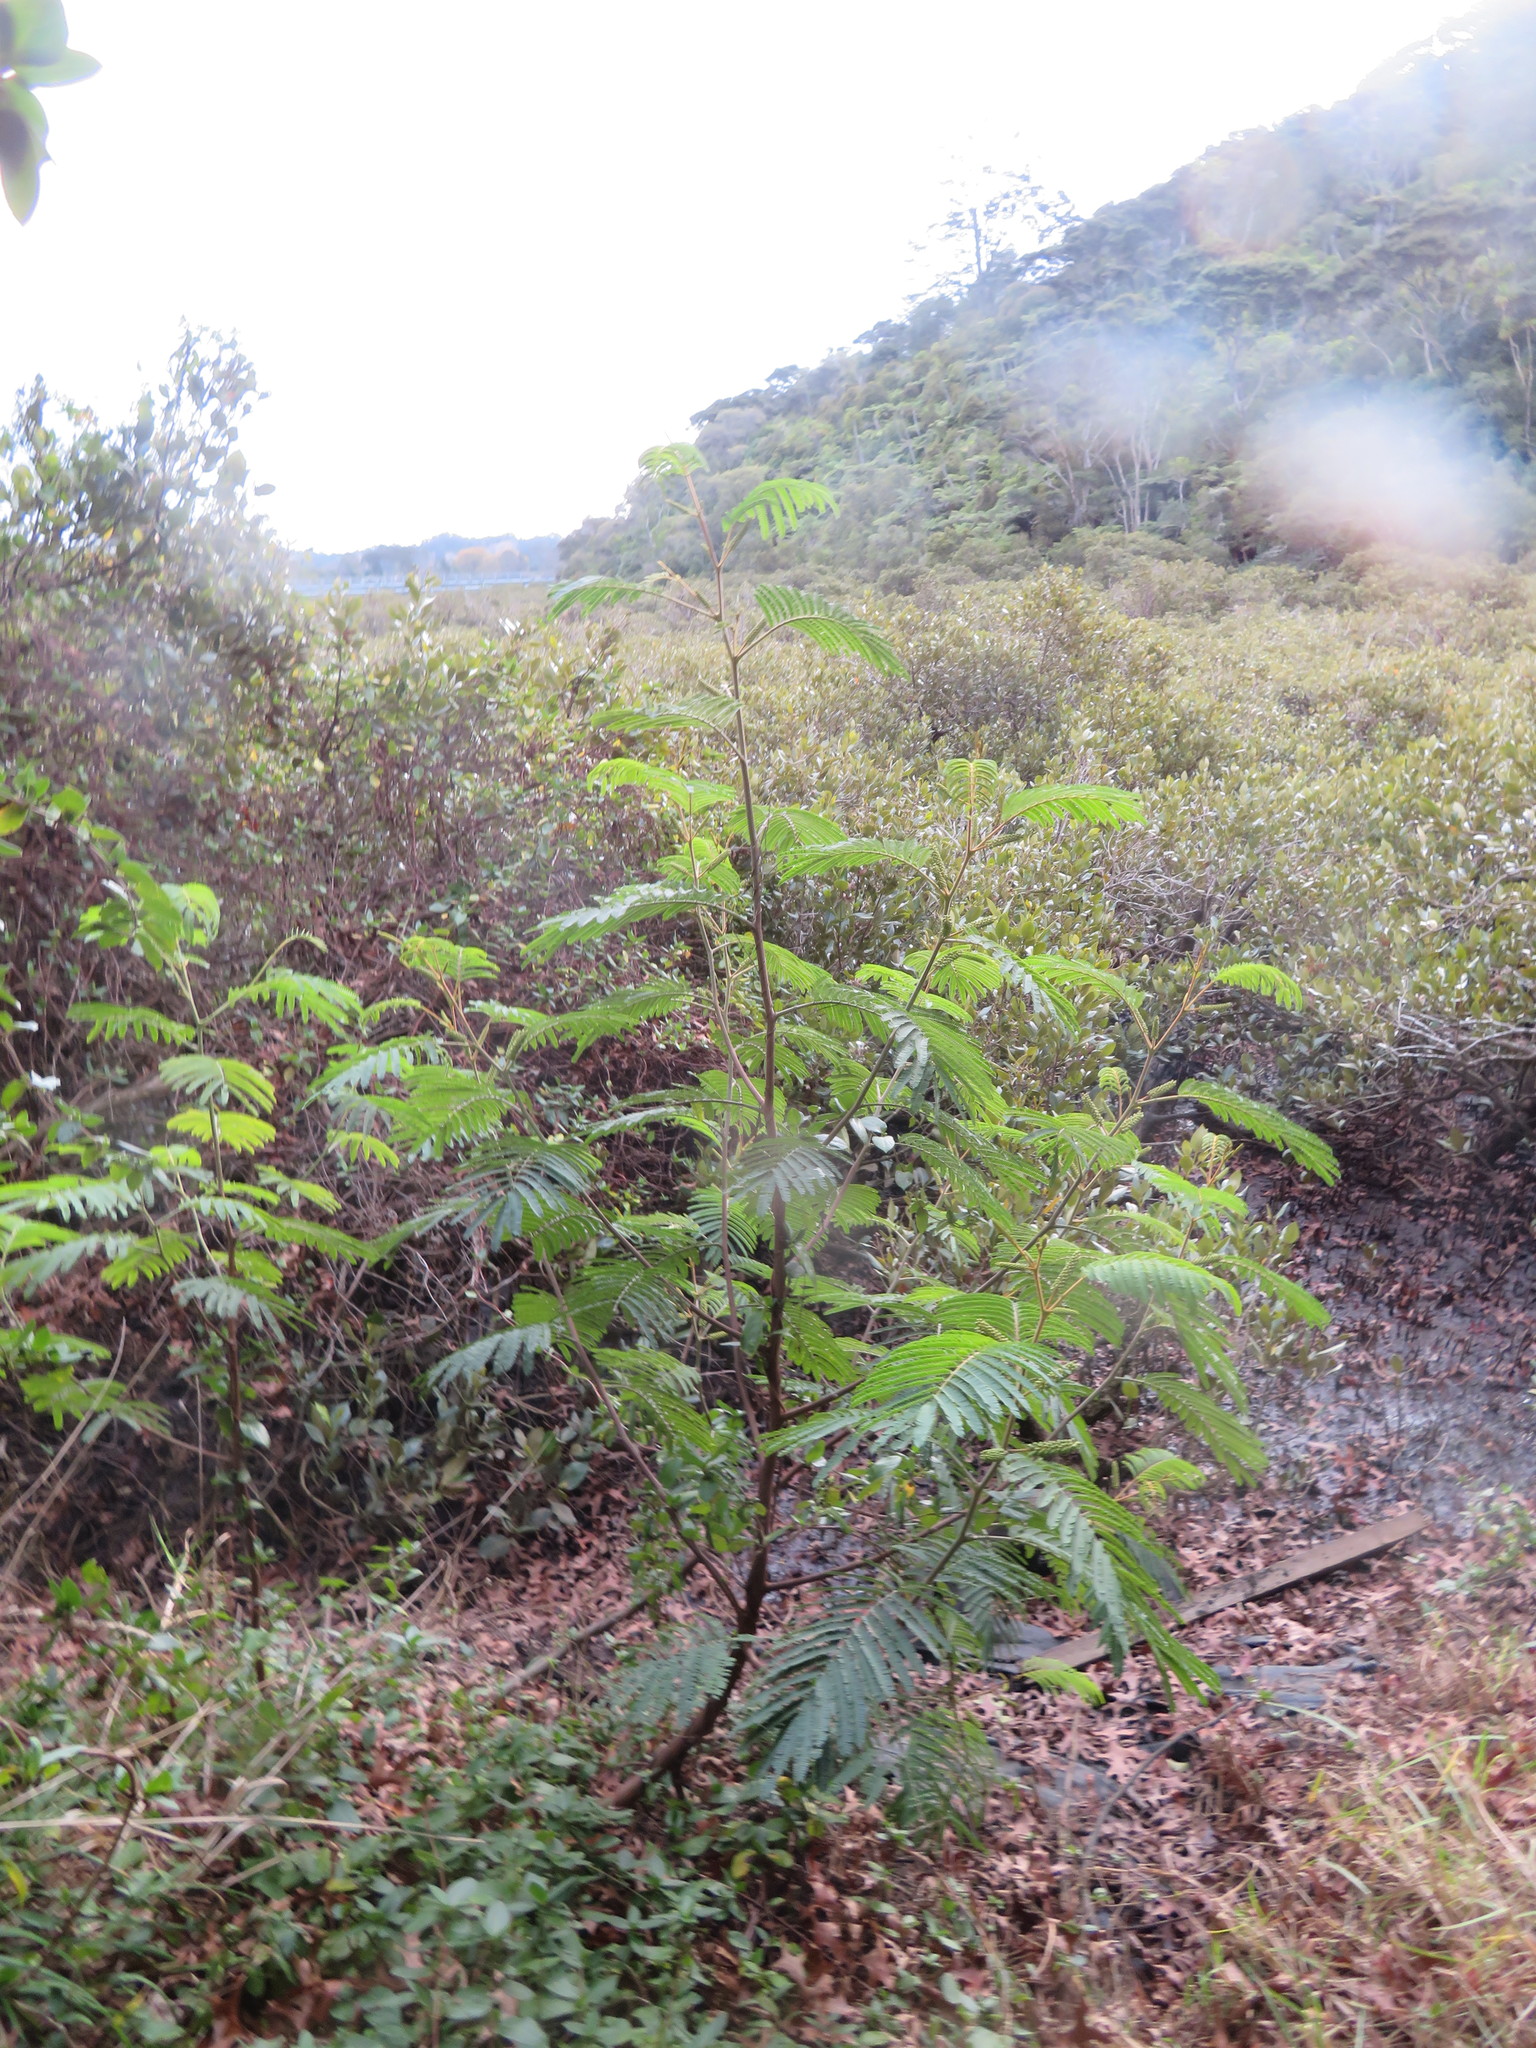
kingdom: Plantae
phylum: Tracheophyta
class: Liliopsida
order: Poales
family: Poaceae
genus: Ehrharta
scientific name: Ehrharta erecta
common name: Panic veldtgrass
